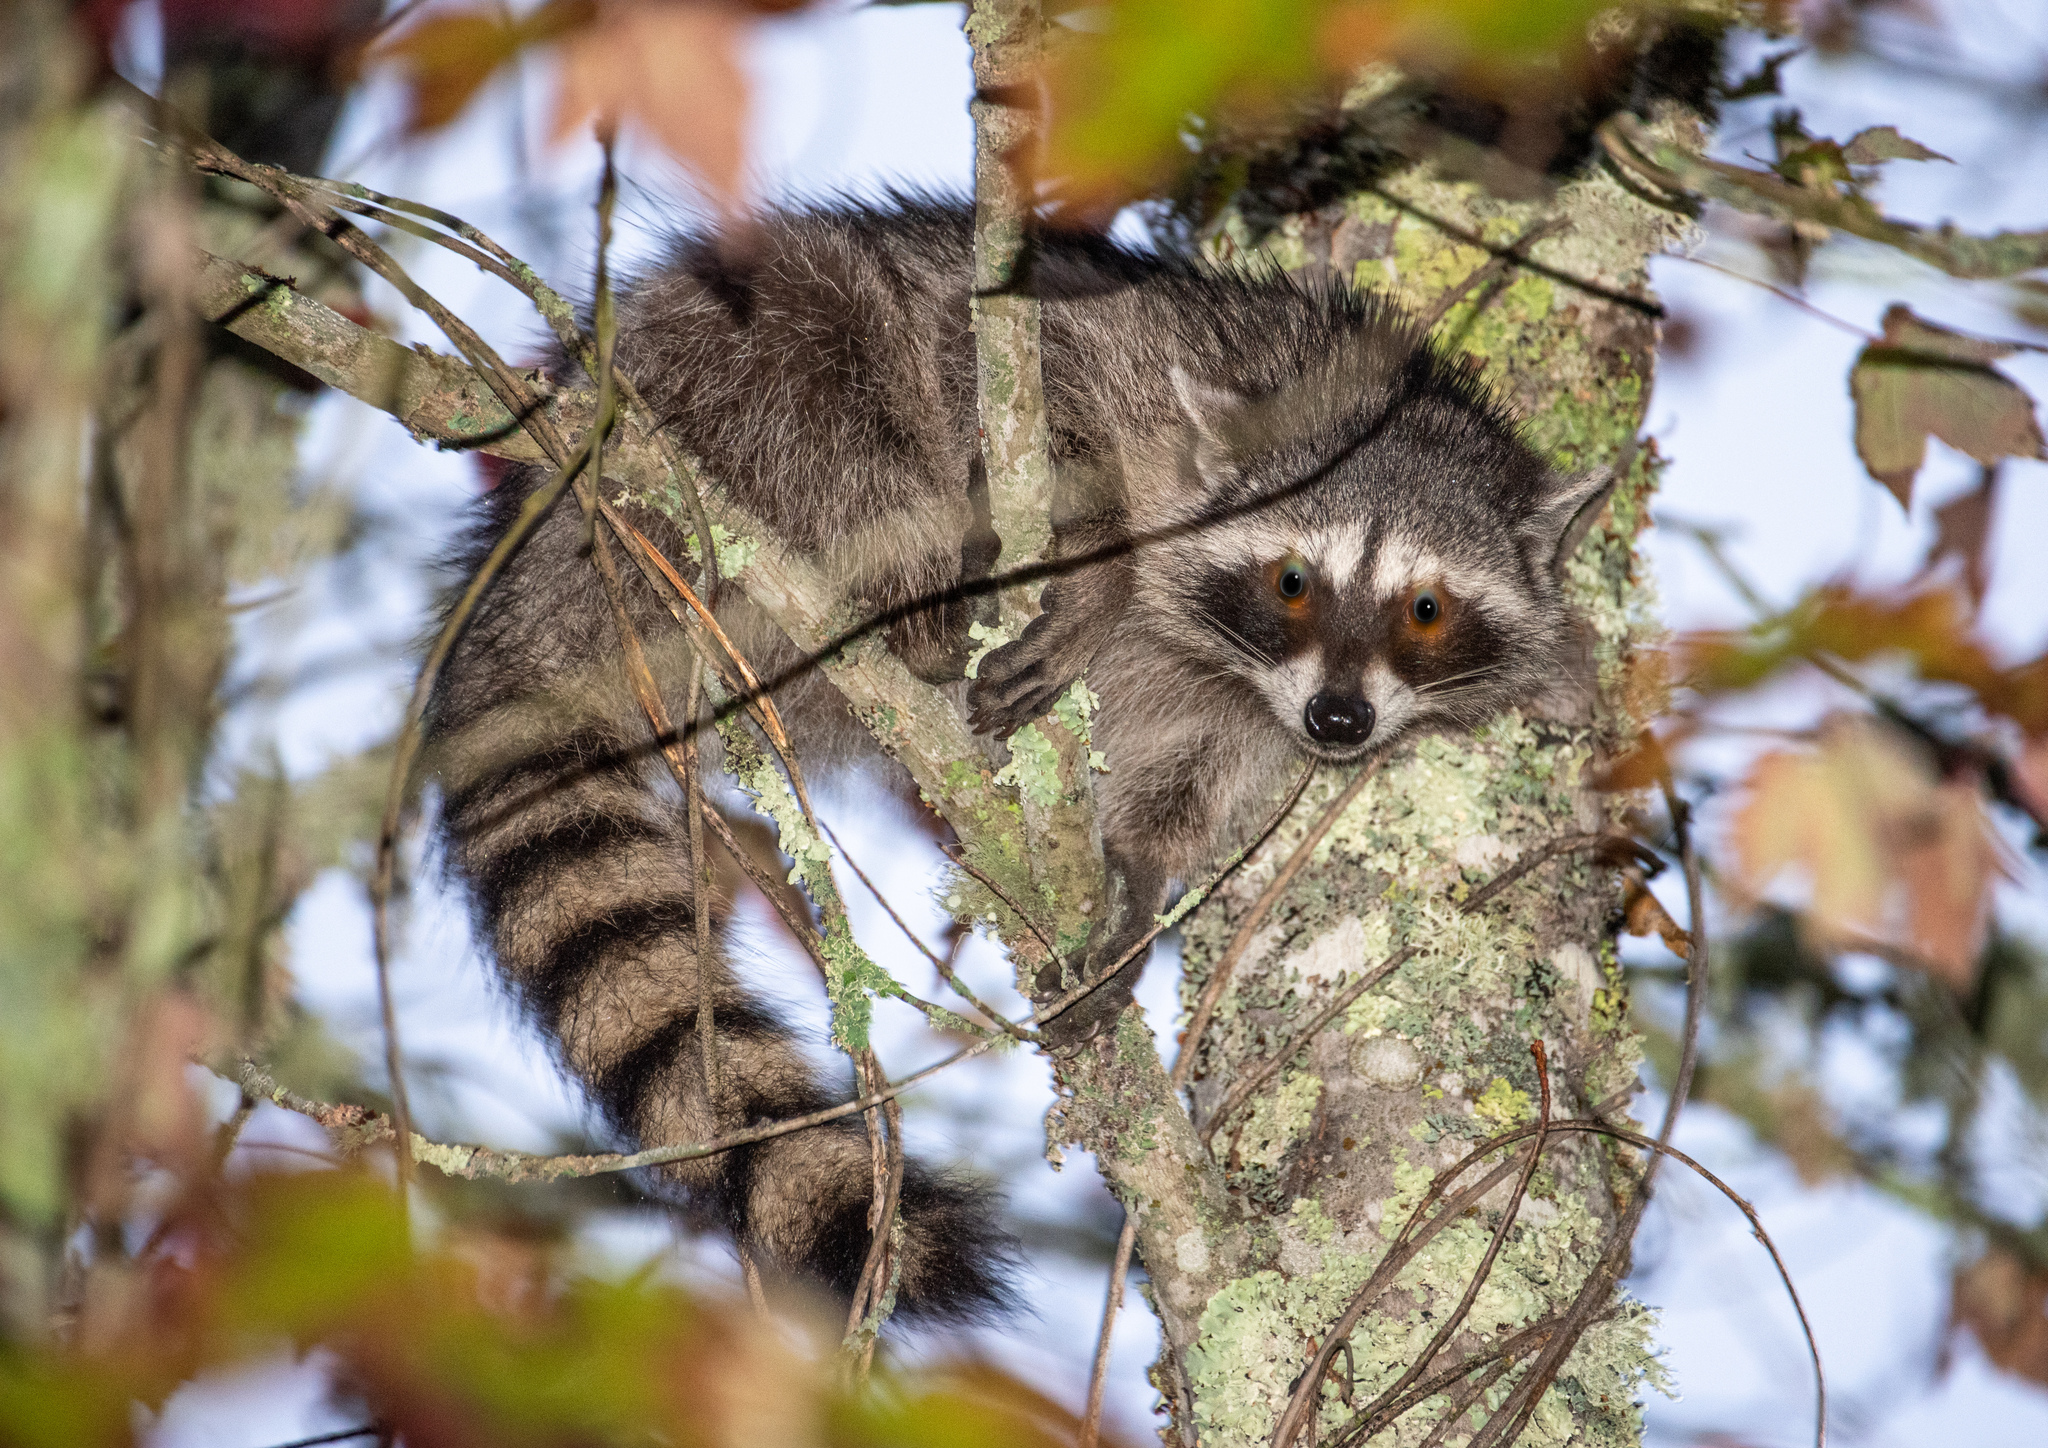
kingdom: Animalia
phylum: Chordata
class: Mammalia
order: Carnivora
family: Procyonidae
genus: Procyon
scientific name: Procyon lotor
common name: Raccoon
